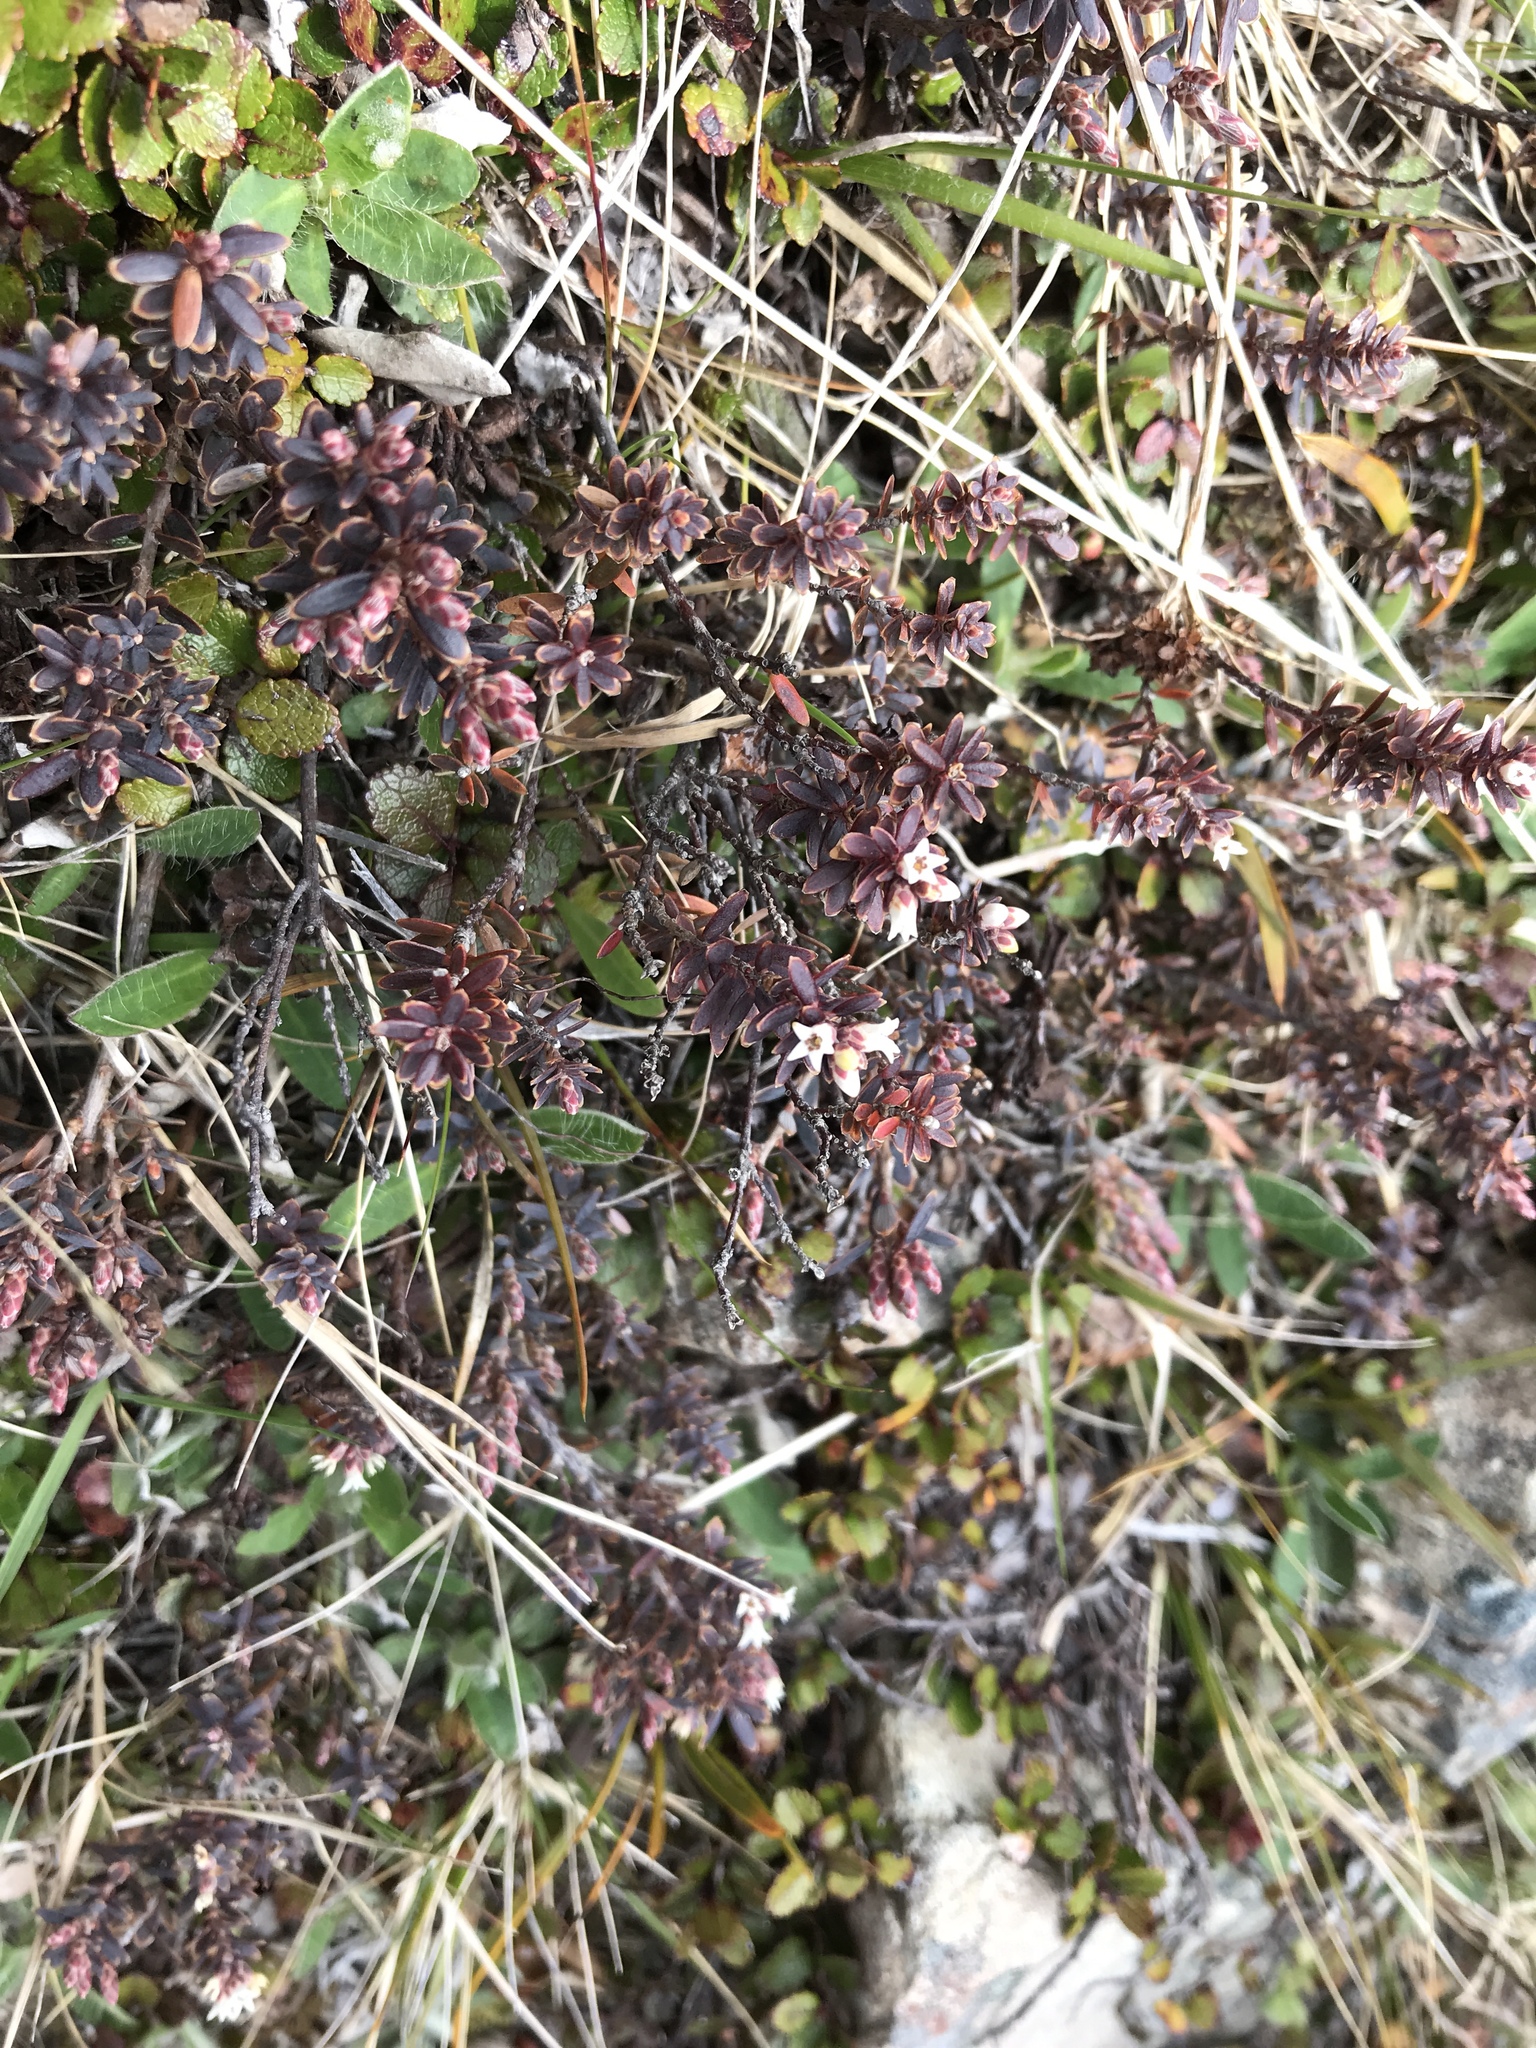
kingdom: Plantae
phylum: Tracheophyta
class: Magnoliopsida
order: Ericales
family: Ericaceae
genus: Acrothamnus
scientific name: Acrothamnus colensoi
